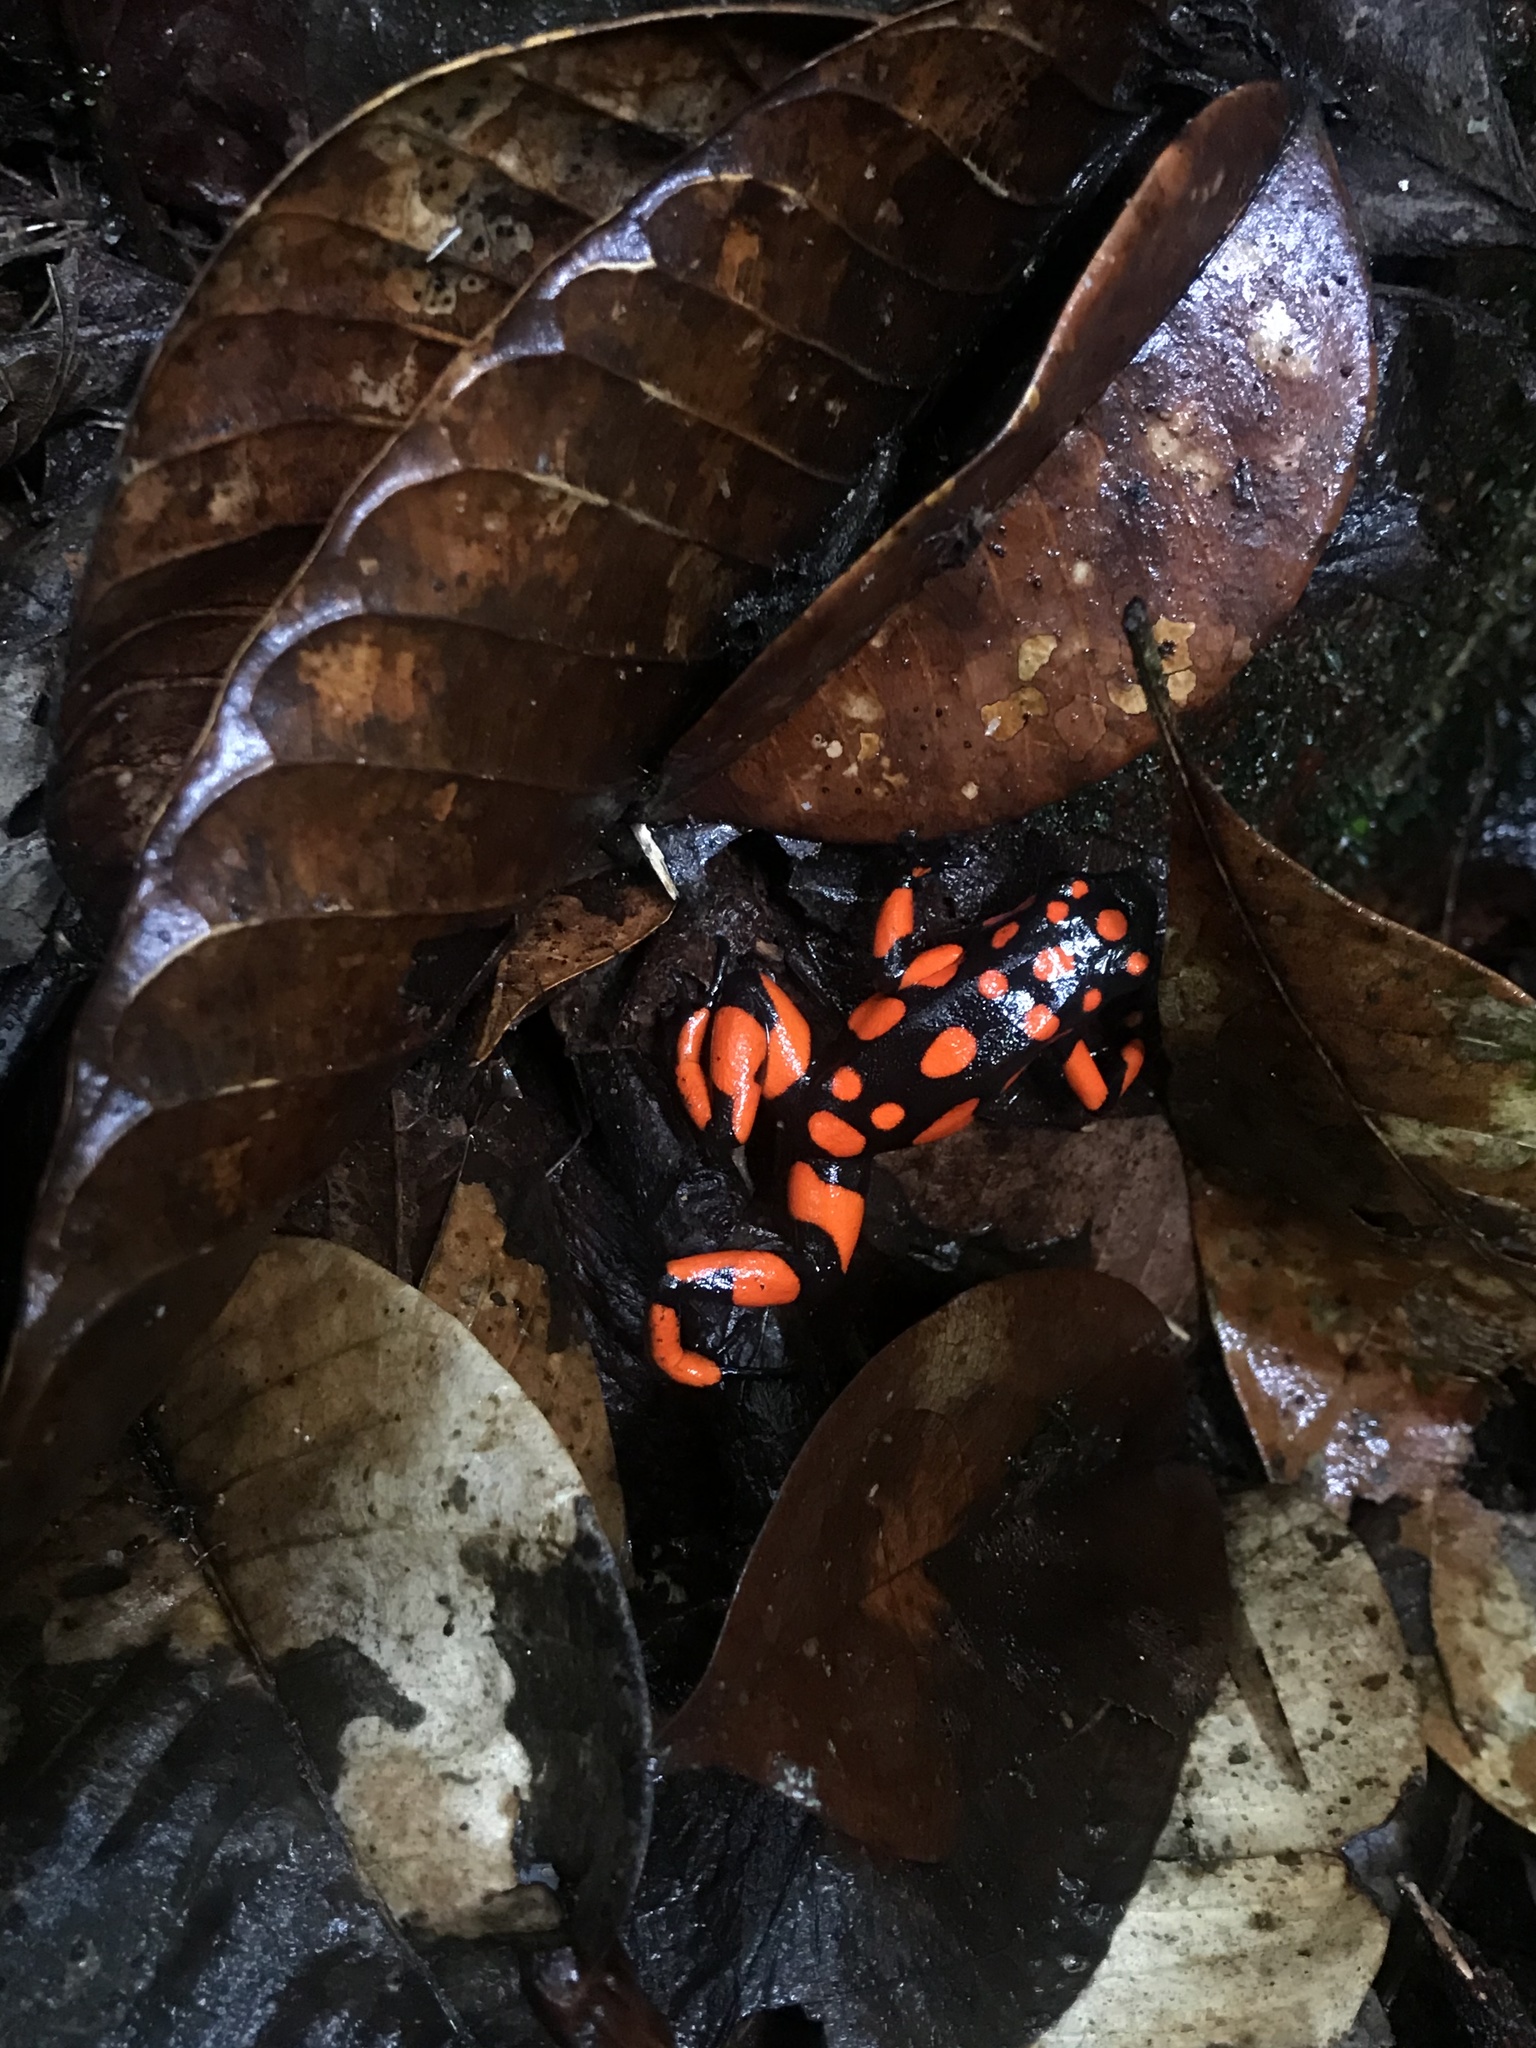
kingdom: Animalia
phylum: Chordata
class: Amphibia
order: Anura
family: Dendrobatidae
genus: Oophaga
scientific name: Oophaga solanensis
